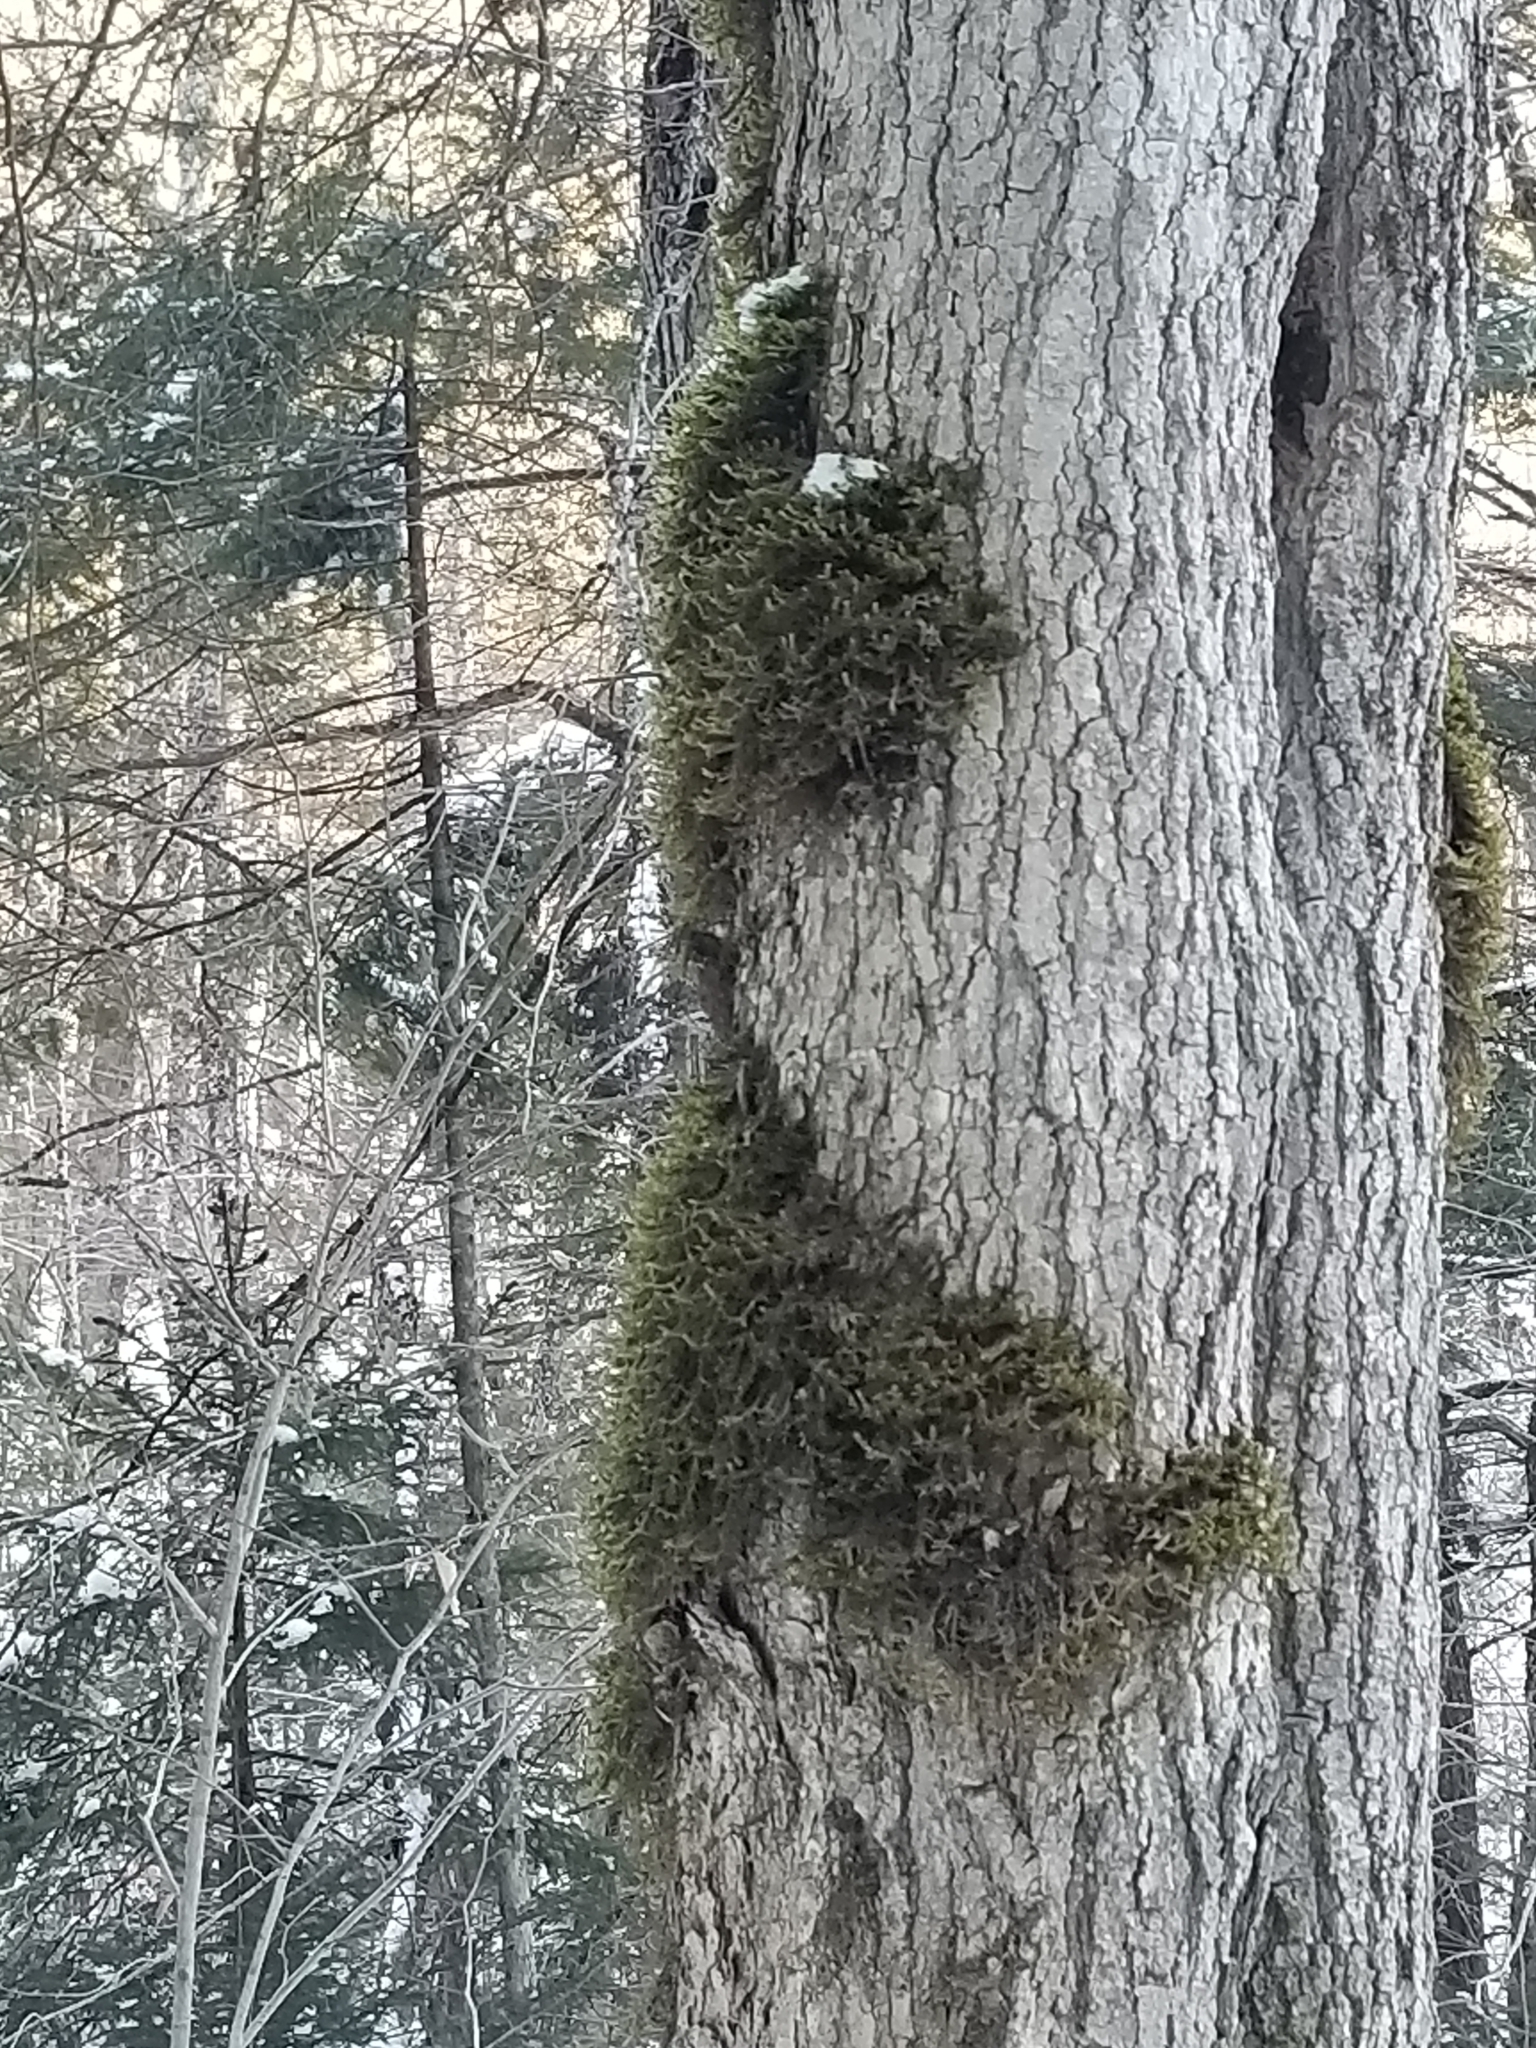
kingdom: Plantae
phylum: Tracheophyta
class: Magnoliopsida
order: Sapindales
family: Sapindaceae
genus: Acer
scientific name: Acer saccharum
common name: Sugar maple
